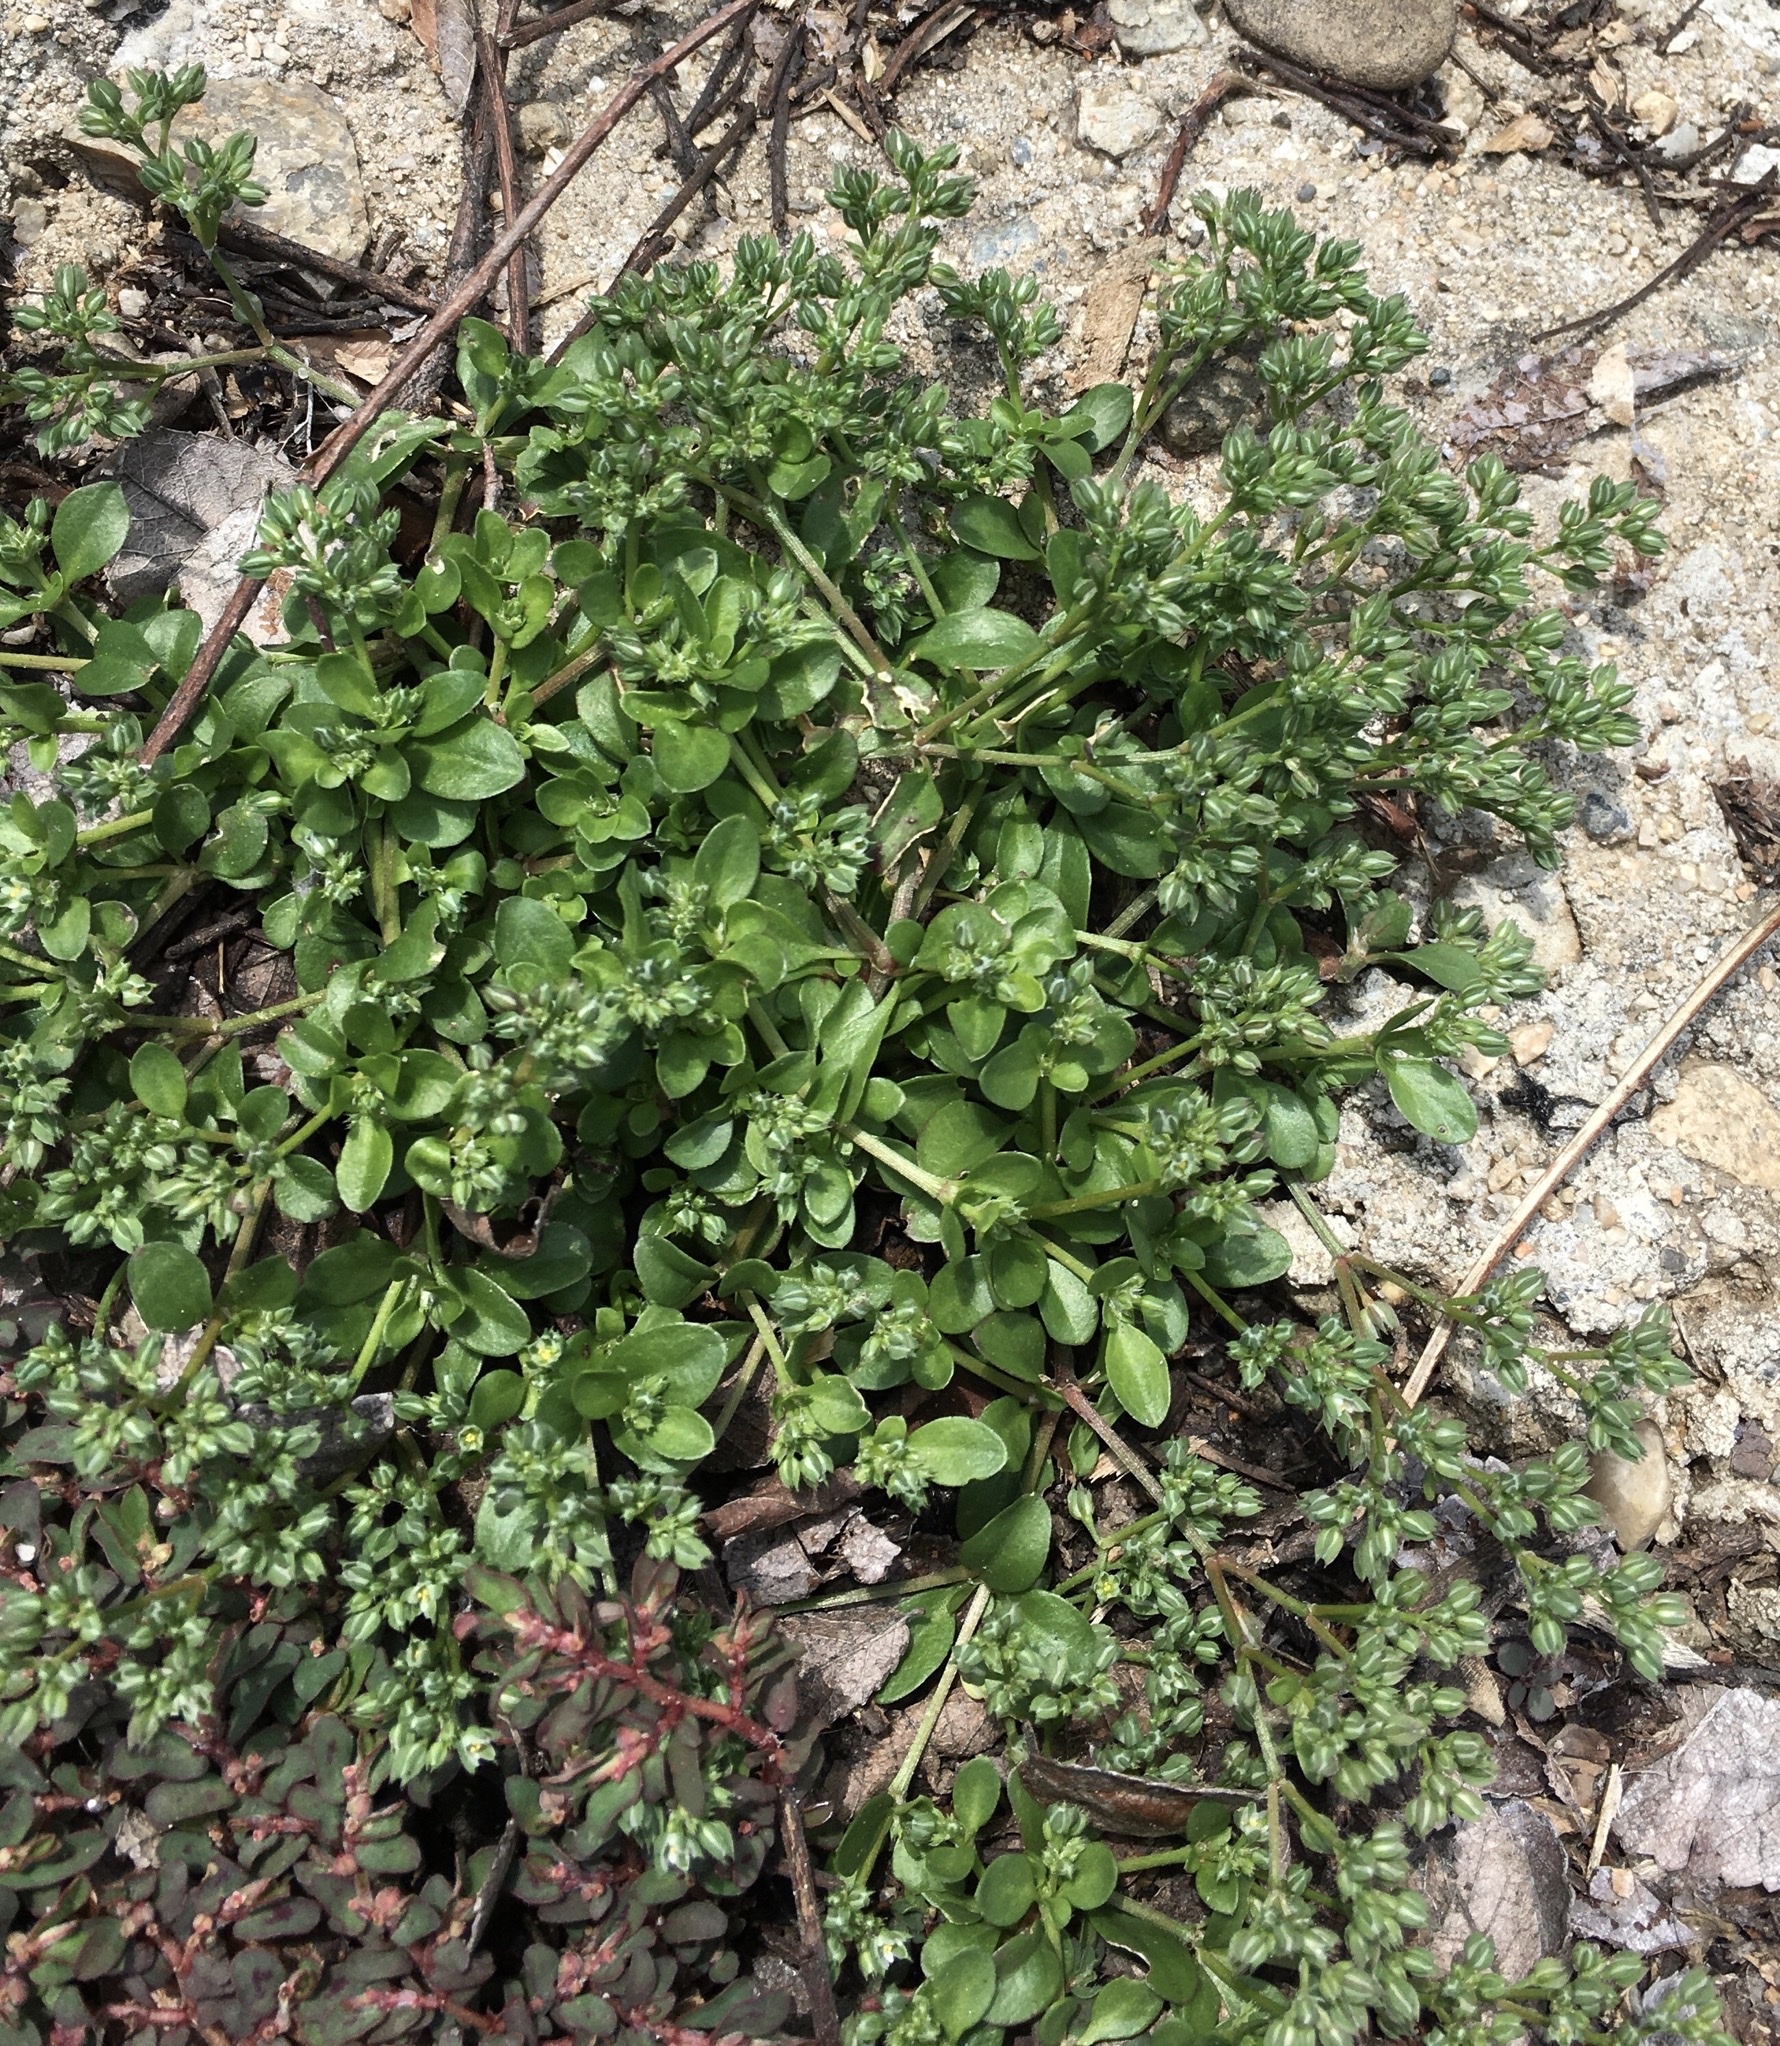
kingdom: Plantae
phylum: Tracheophyta
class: Magnoliopsida
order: Caryophyllales
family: Caryophyllaceae
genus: Polycarpon
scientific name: Polycarpon tetraphyllum
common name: Four-leaved all-seed
